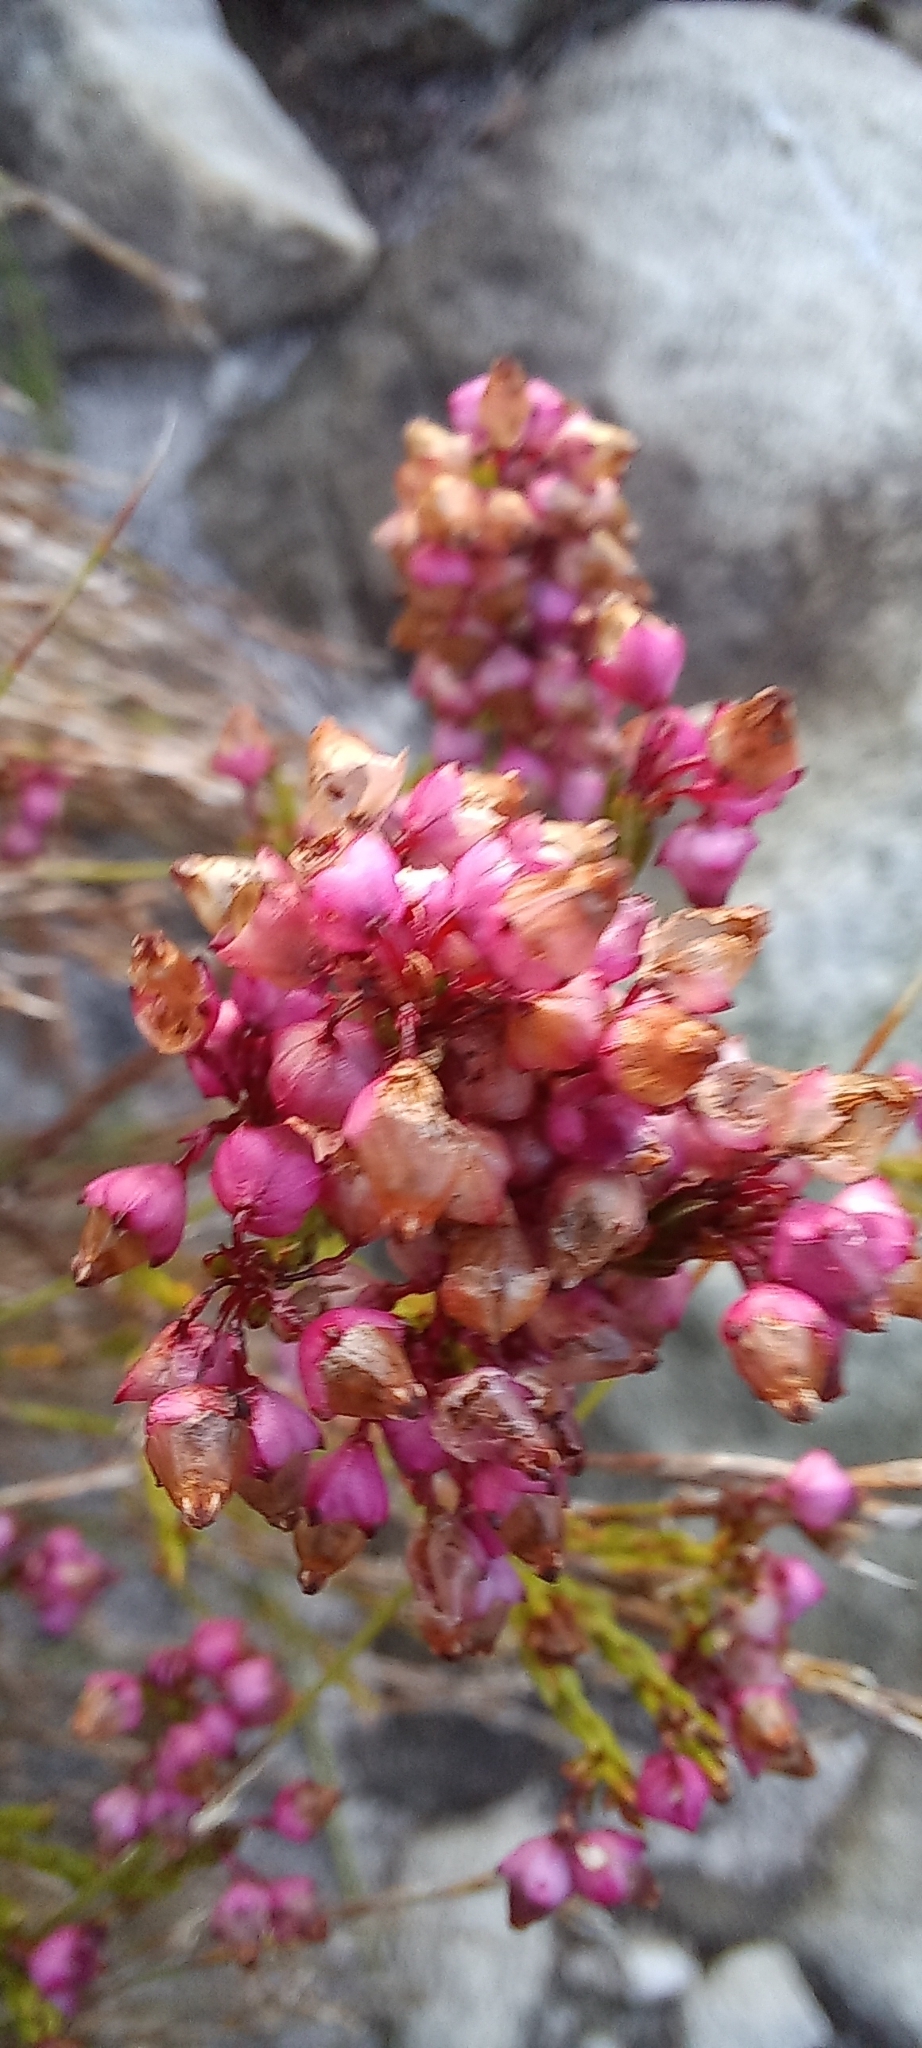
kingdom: Plantae
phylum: Tracheophyta
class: Magnoliopsida
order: Ericales
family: Ericaceae
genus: Erica
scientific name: Erica rhopalantha
